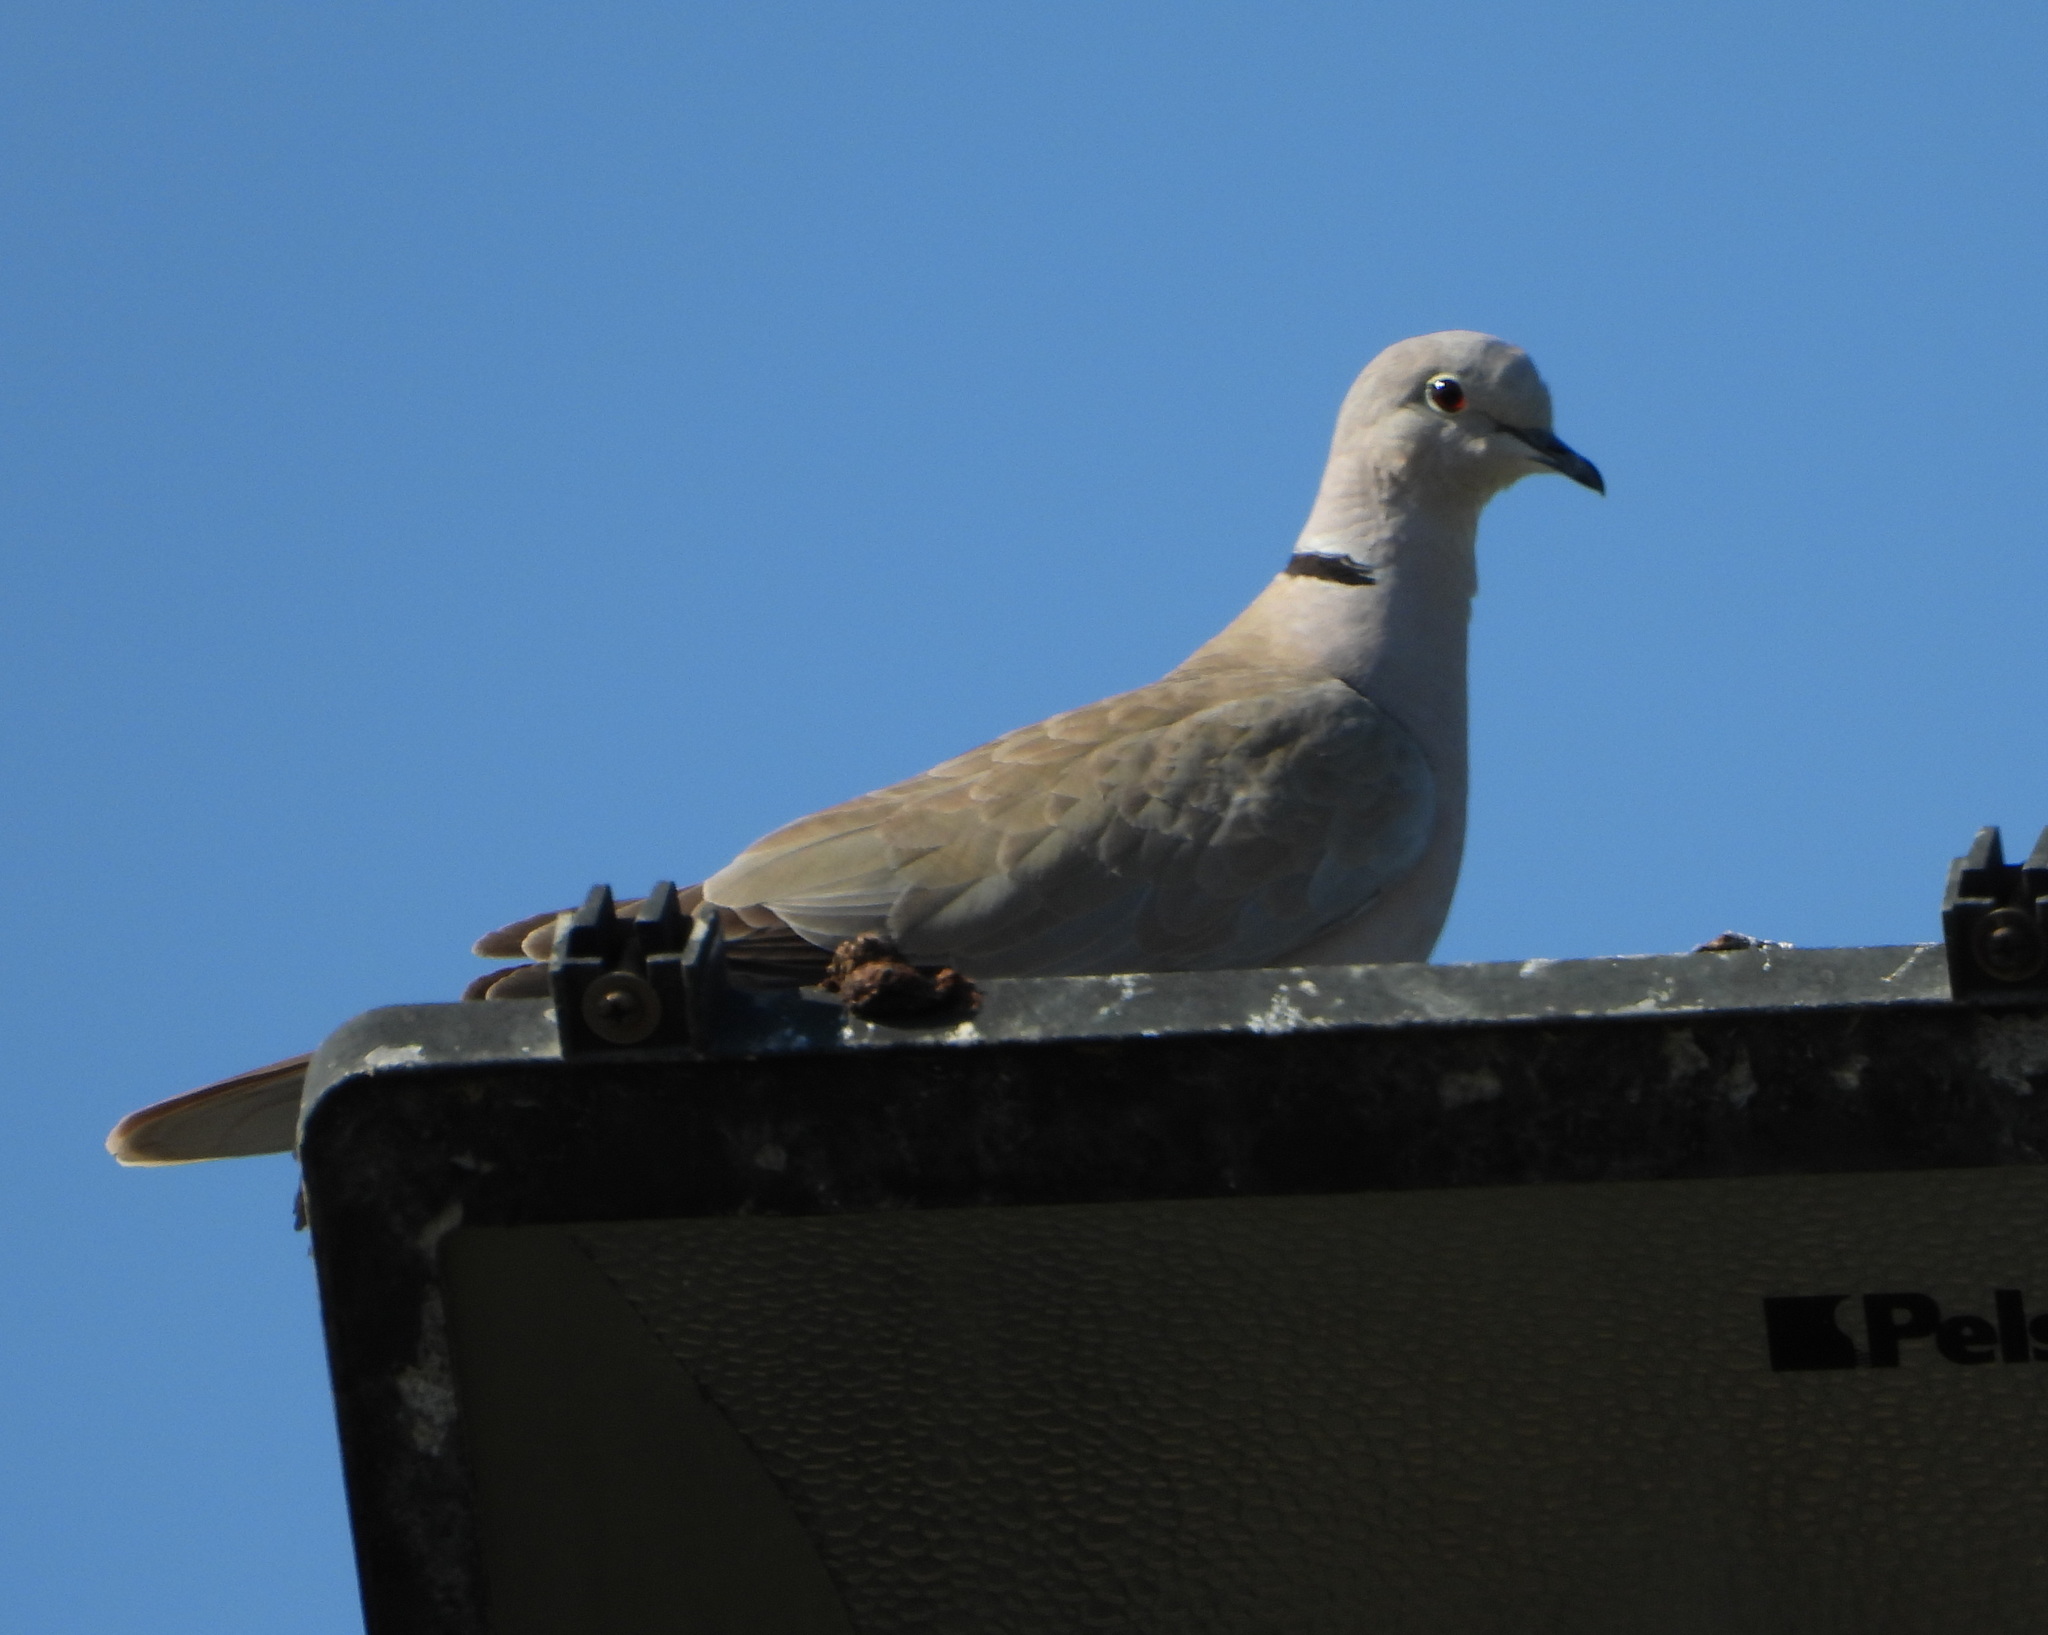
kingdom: Animalia
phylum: Chordata
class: Aves
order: Columbiformes
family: Columbidae
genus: Streptopelia
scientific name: Streptopelia decaocto
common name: Eurasian collared dove
